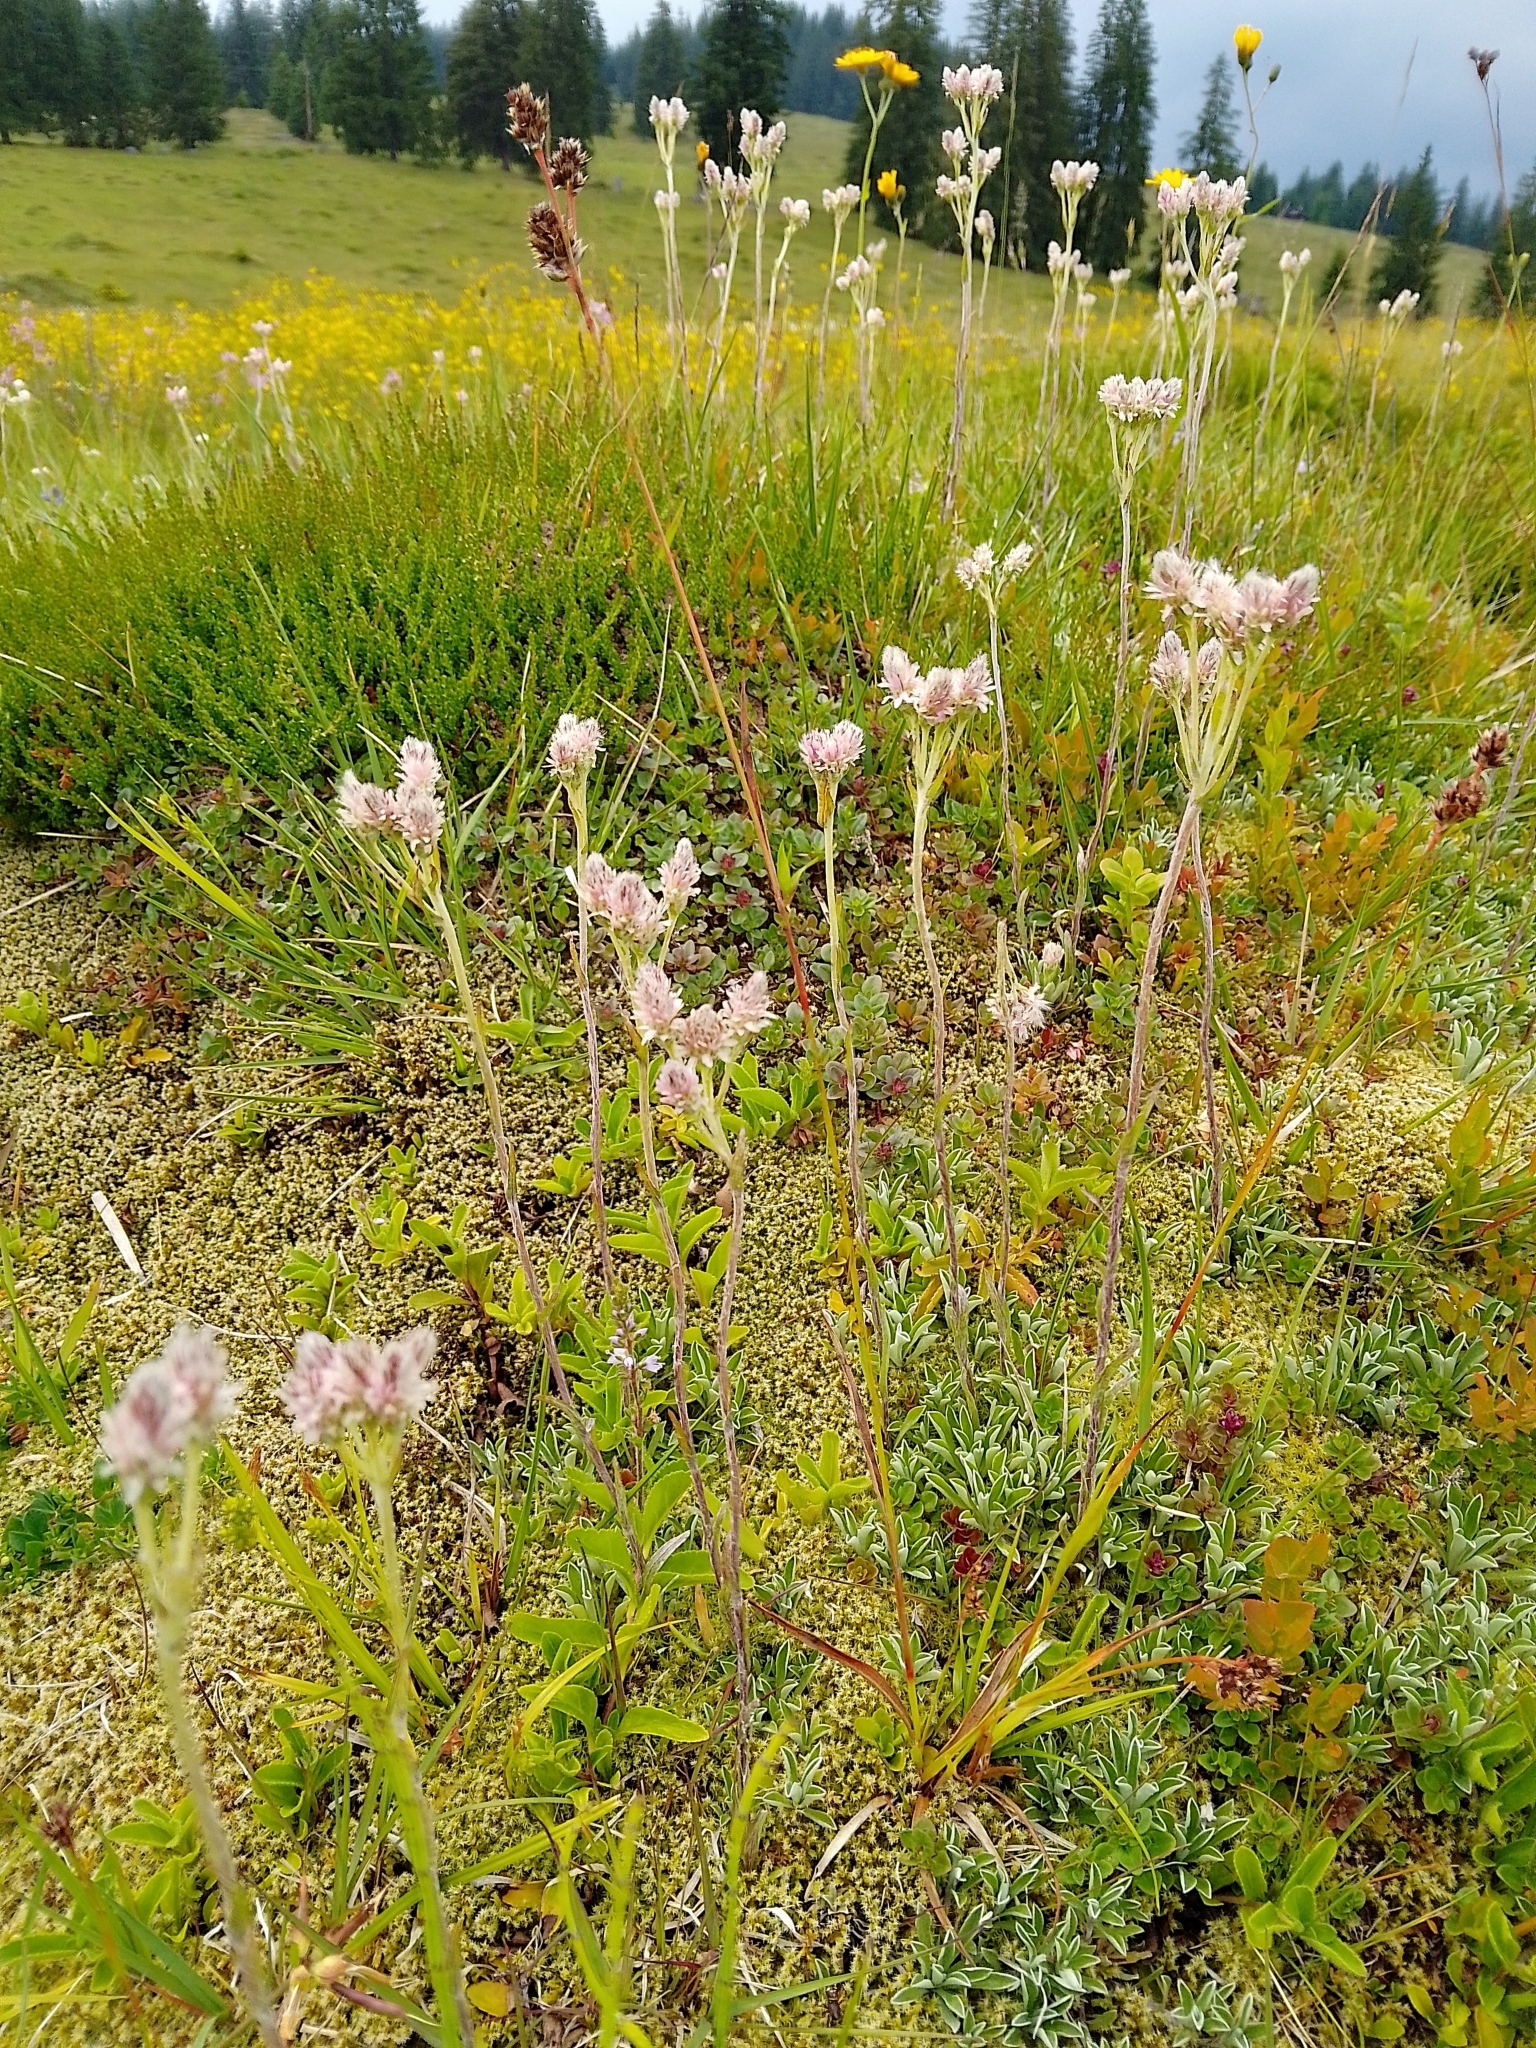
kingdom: Plantae
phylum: Tracheophyta
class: Magnoliopsida
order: Asterales
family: Asteraceae
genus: Antennaria
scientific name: Antennaria dioica
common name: Mountain everlasting
